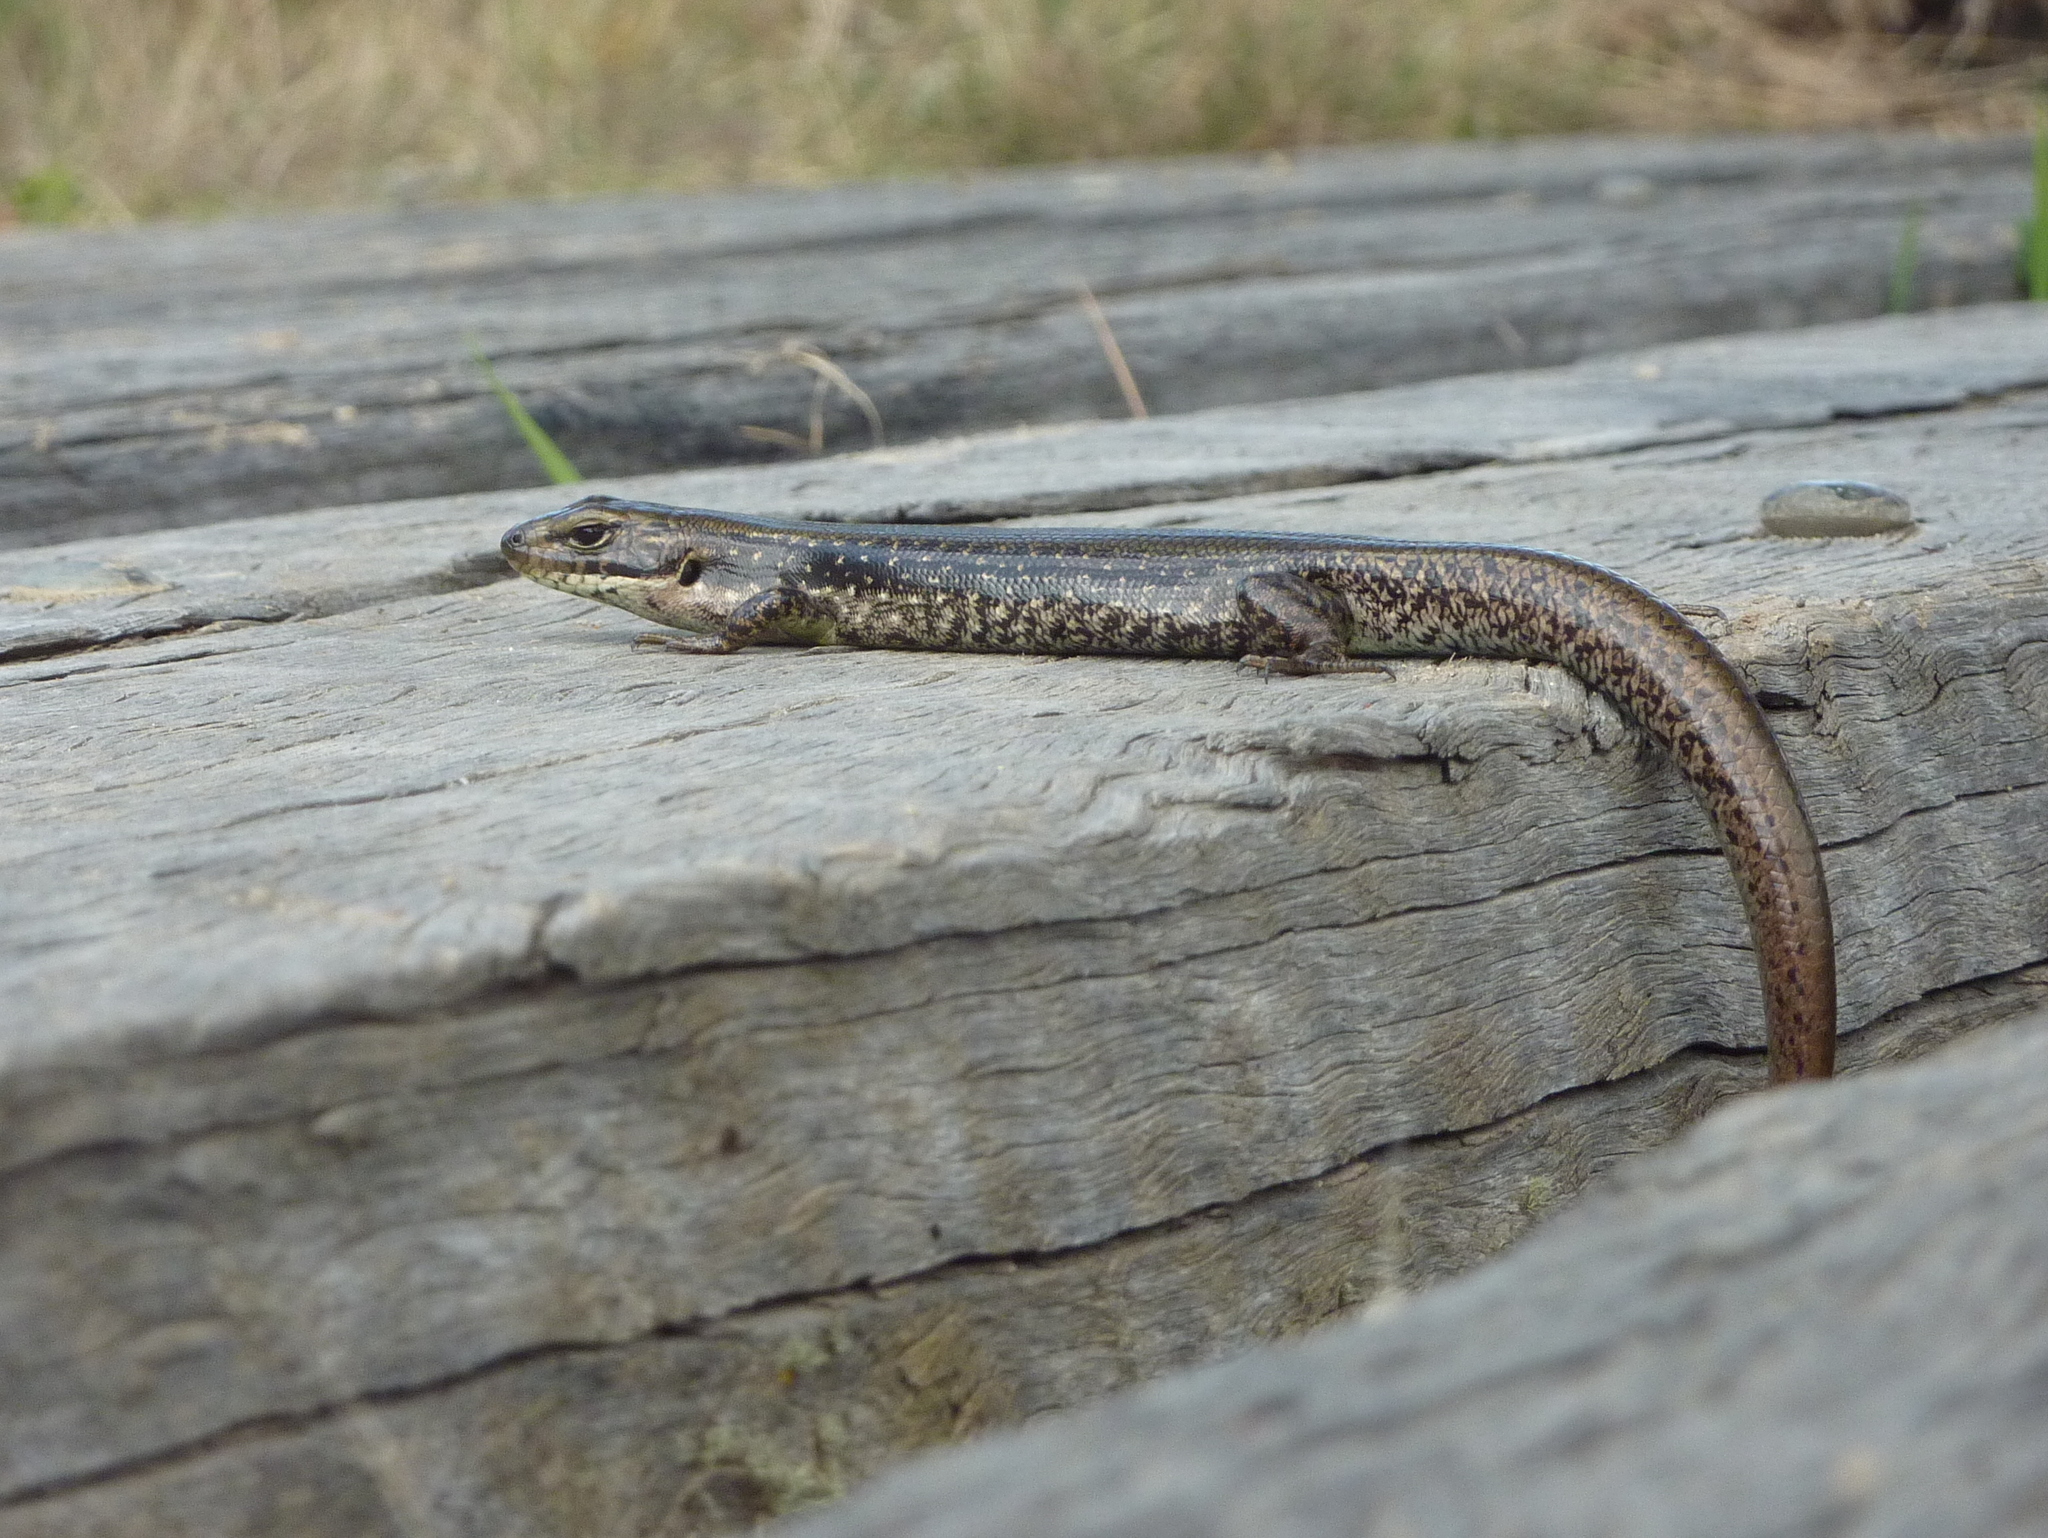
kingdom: Animalia
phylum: Chordata
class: Squamata
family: Scincidae
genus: Eulamprus
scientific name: Eulamprus tympanum
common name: Cool-temperate water-skink
